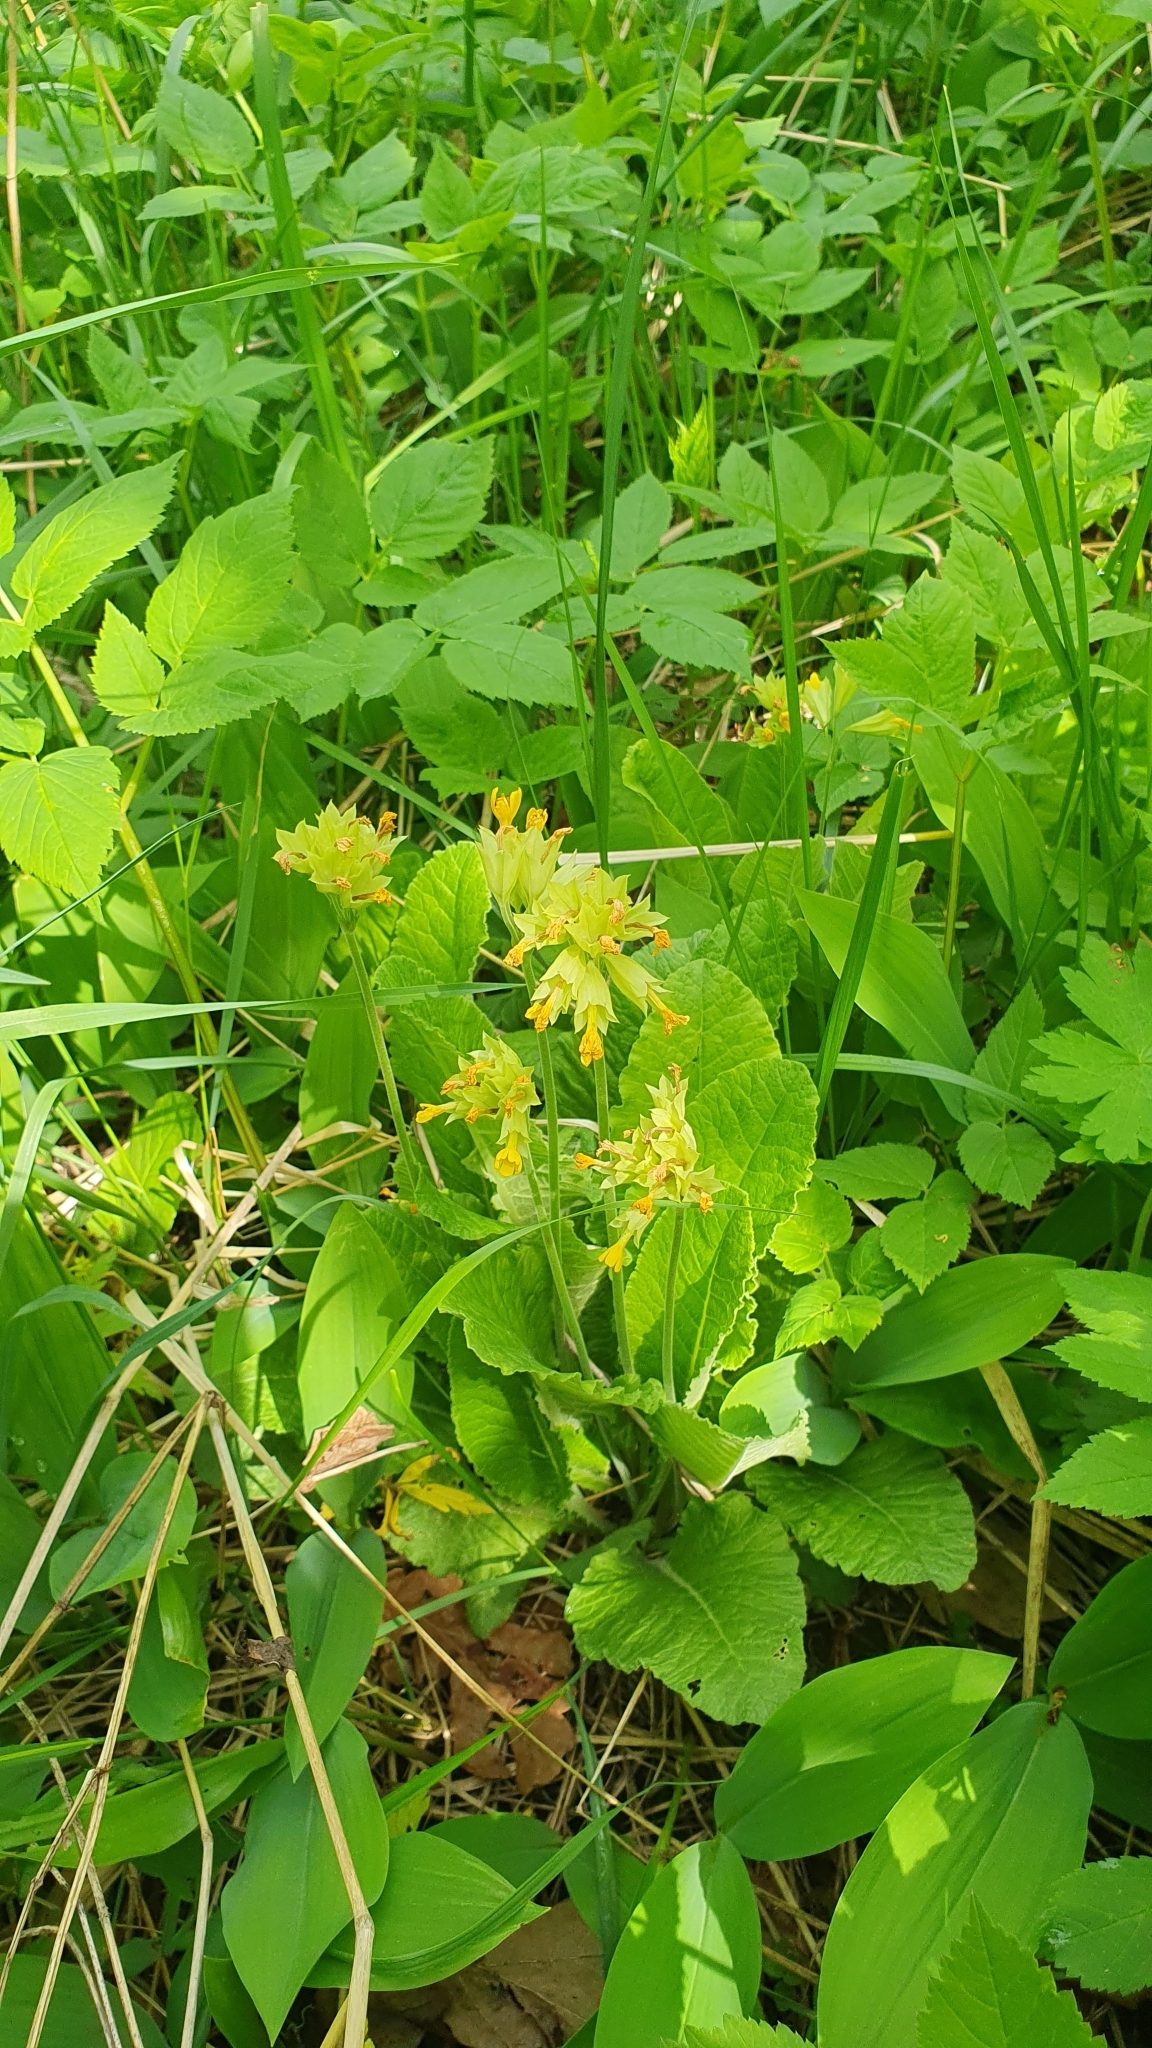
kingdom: Plantae
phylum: Tracheophyta
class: Magnoliopsida
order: Ericales
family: Primulaceae
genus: Primula
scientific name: Primula veris
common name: Cowslip
